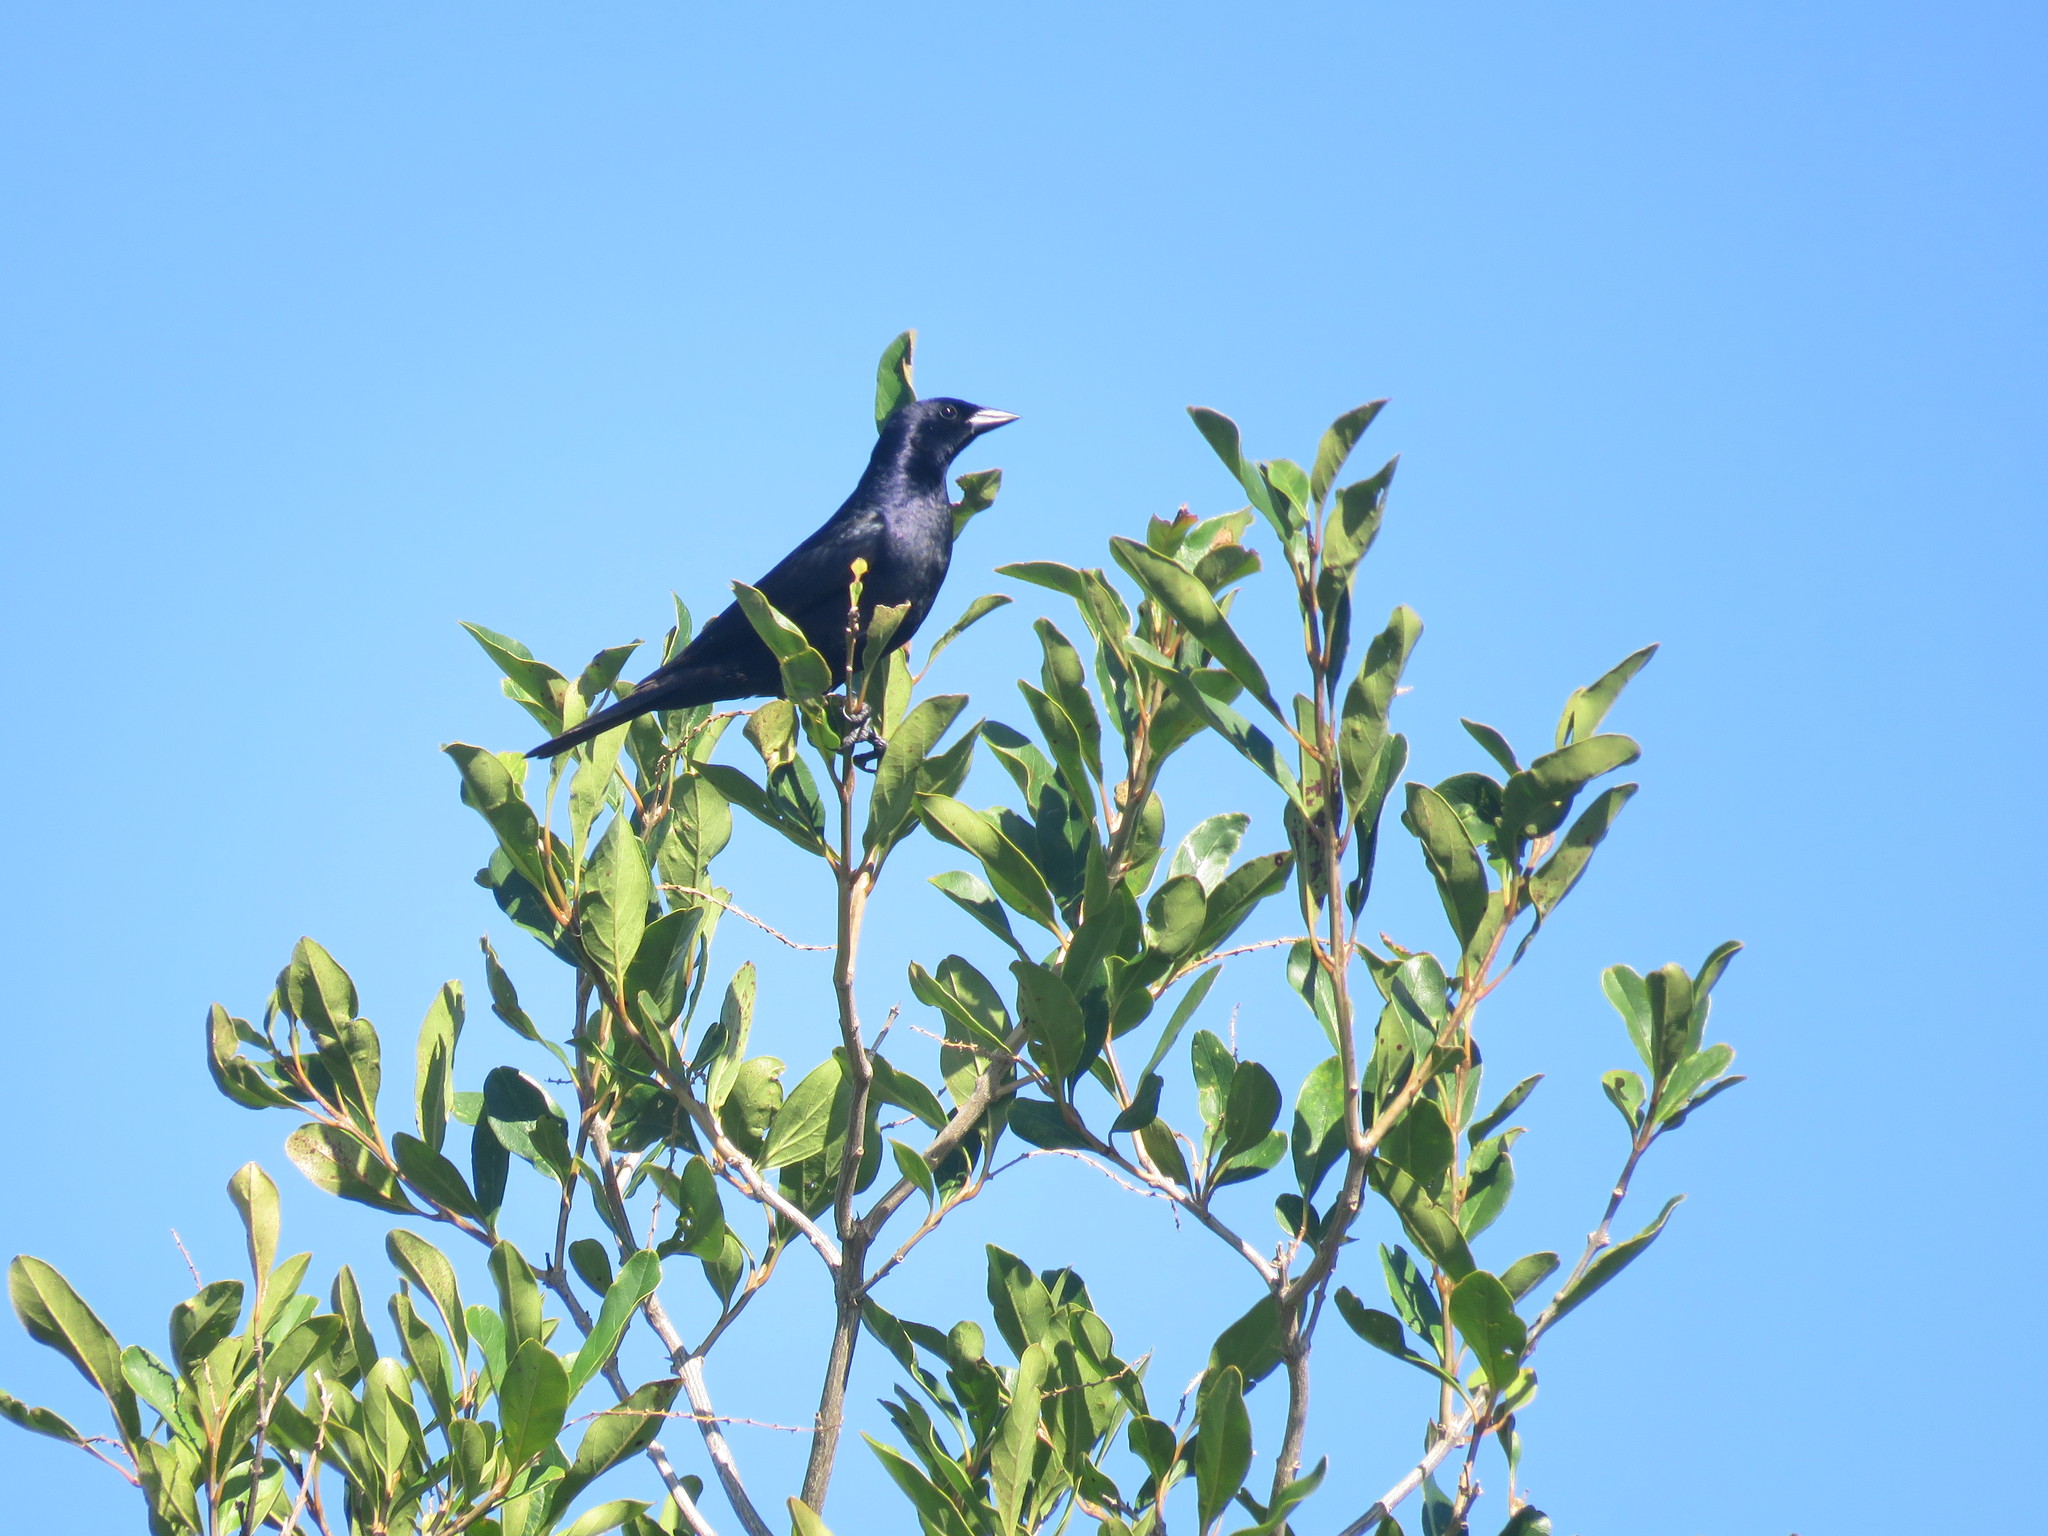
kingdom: Animalia
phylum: Chordata
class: Aves
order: Passeriformes
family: Icteridae
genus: Molothrus
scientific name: Molothrus bonariensis
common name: Shiny cowbird
